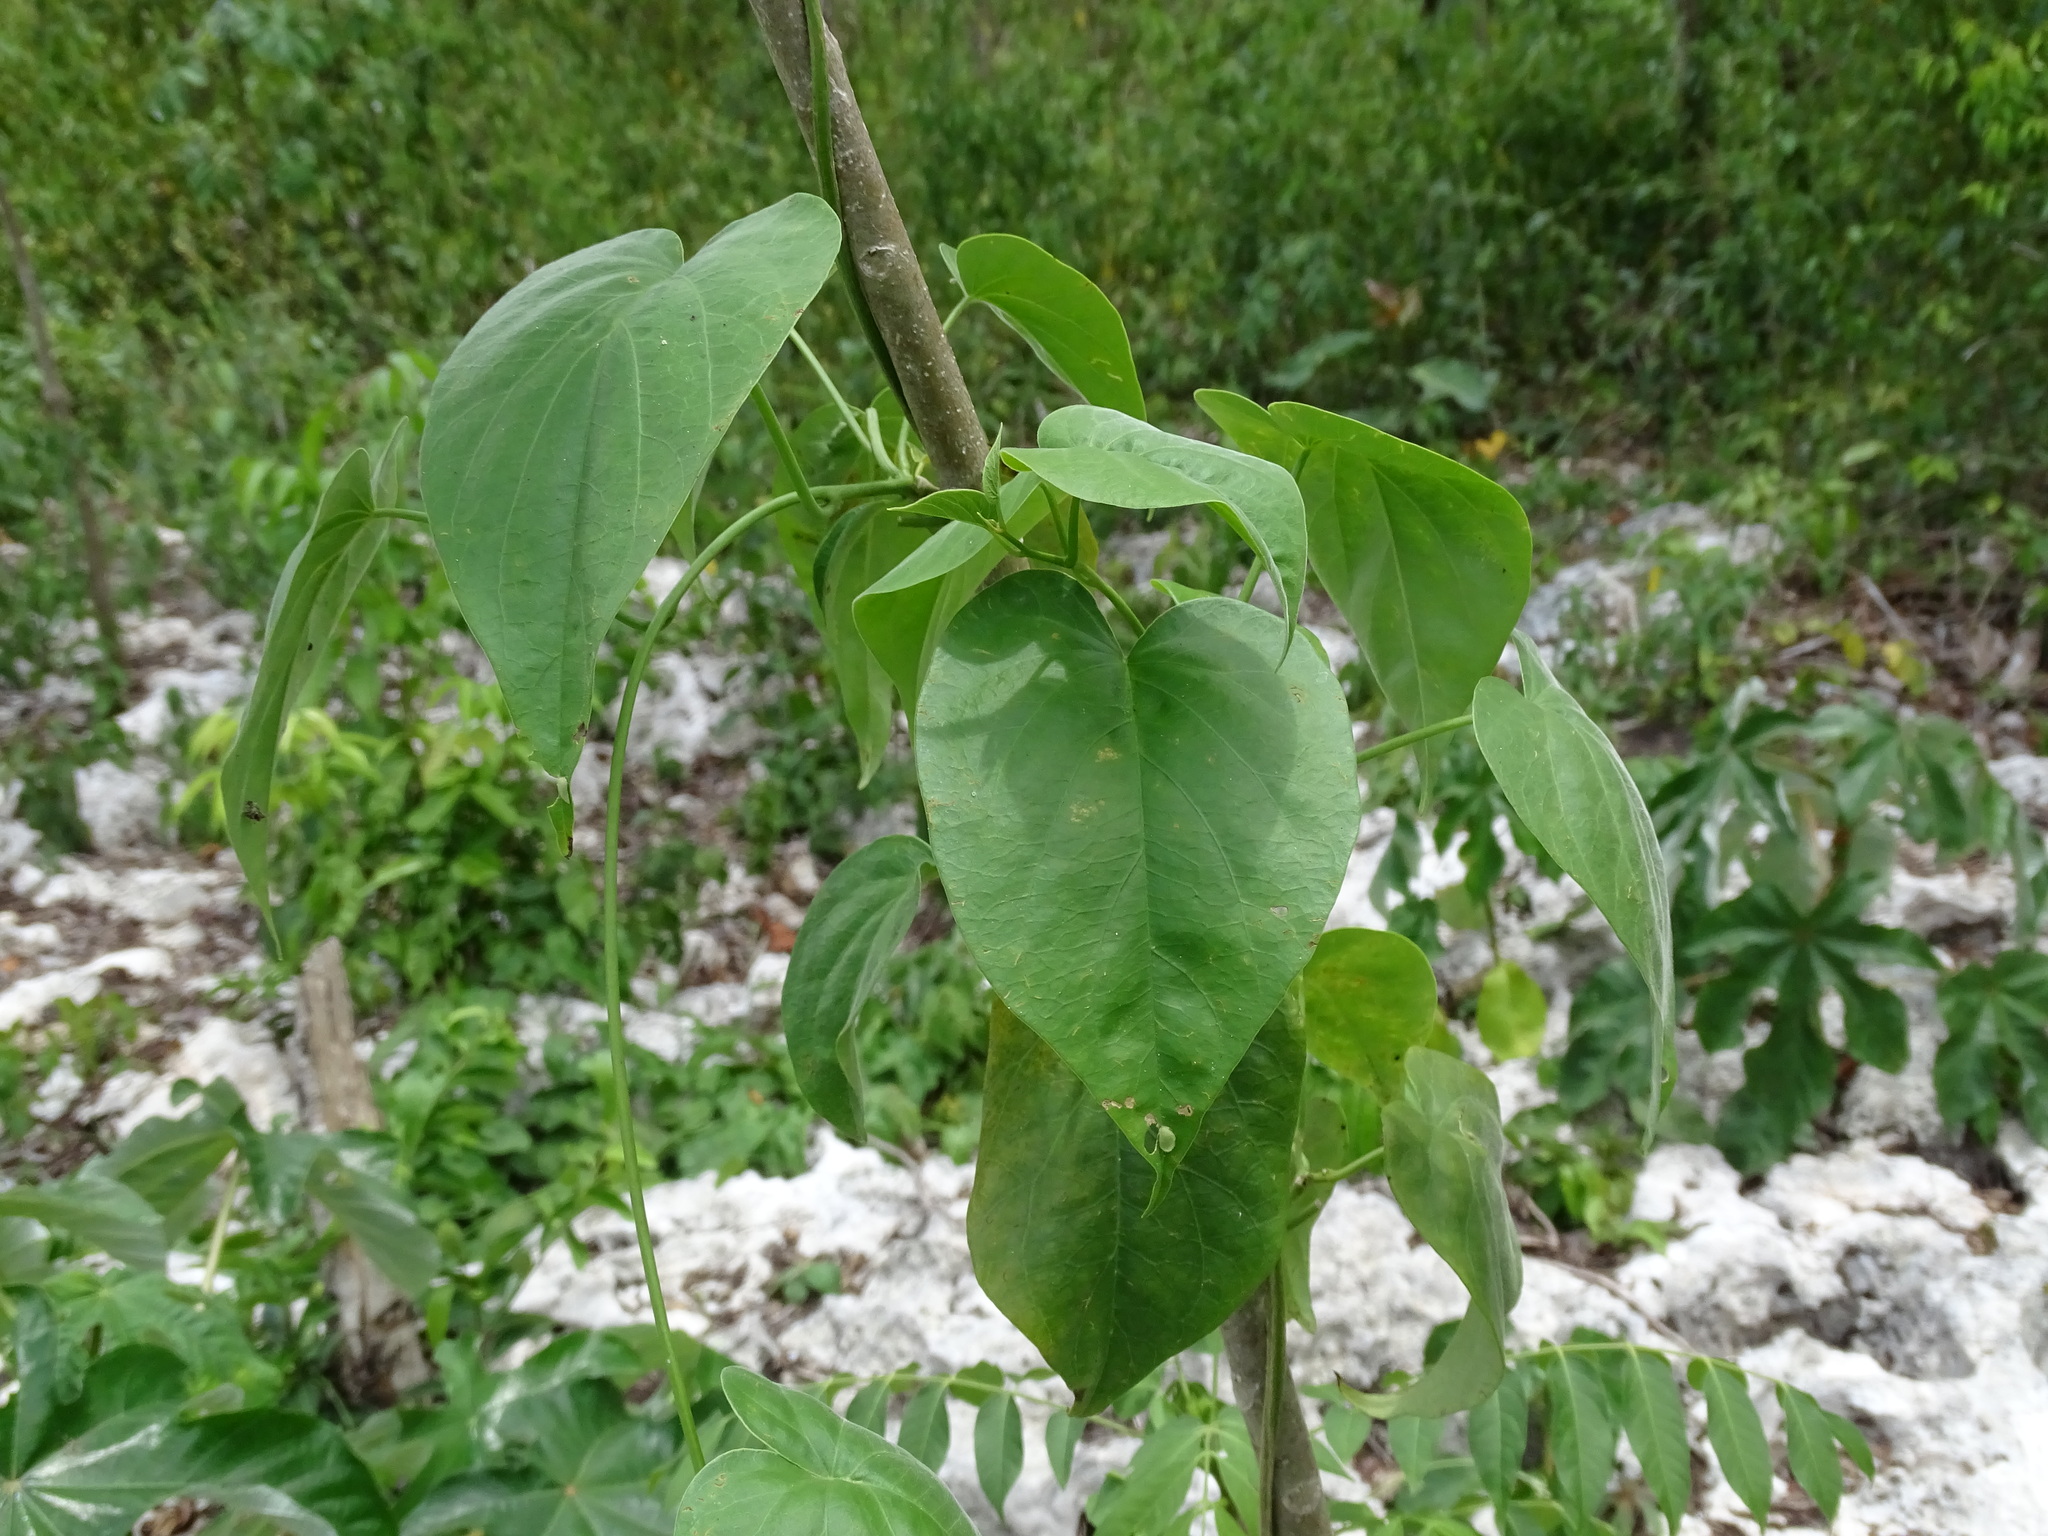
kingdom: Plantae
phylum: Tracheophyta
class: Magnoliopsida
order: Solanales
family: Convolvulaceae
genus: Ipomoea
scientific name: Ipomoea corymbosa
